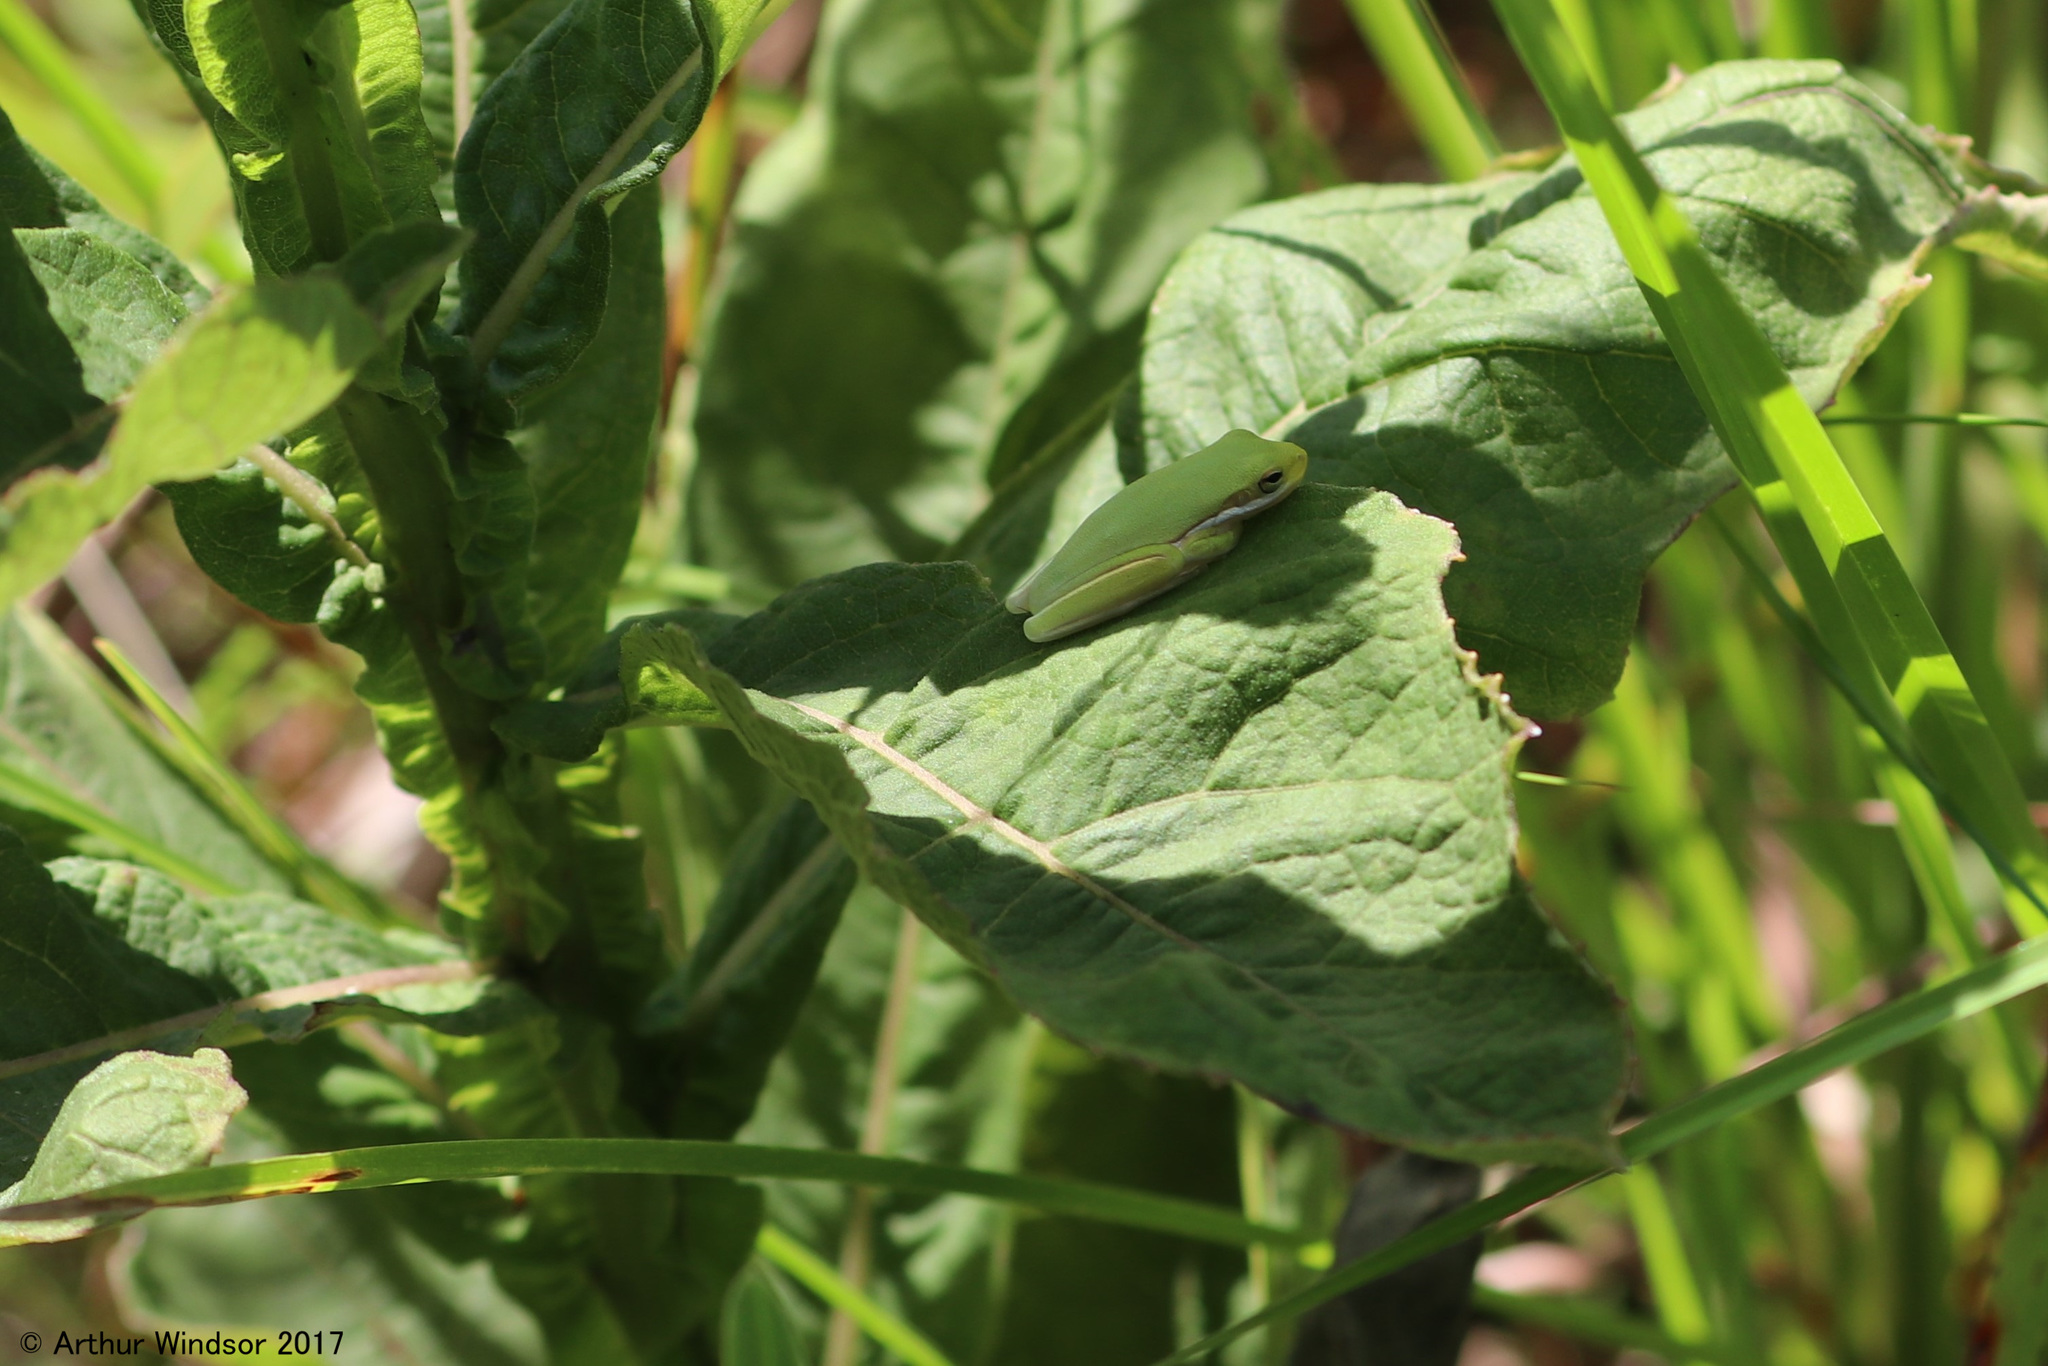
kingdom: Animalia
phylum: Chordata
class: Amphibia
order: Anura
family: Hylidae
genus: Dryophytes
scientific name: Dryophytes cinereus
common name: Green treefrog
